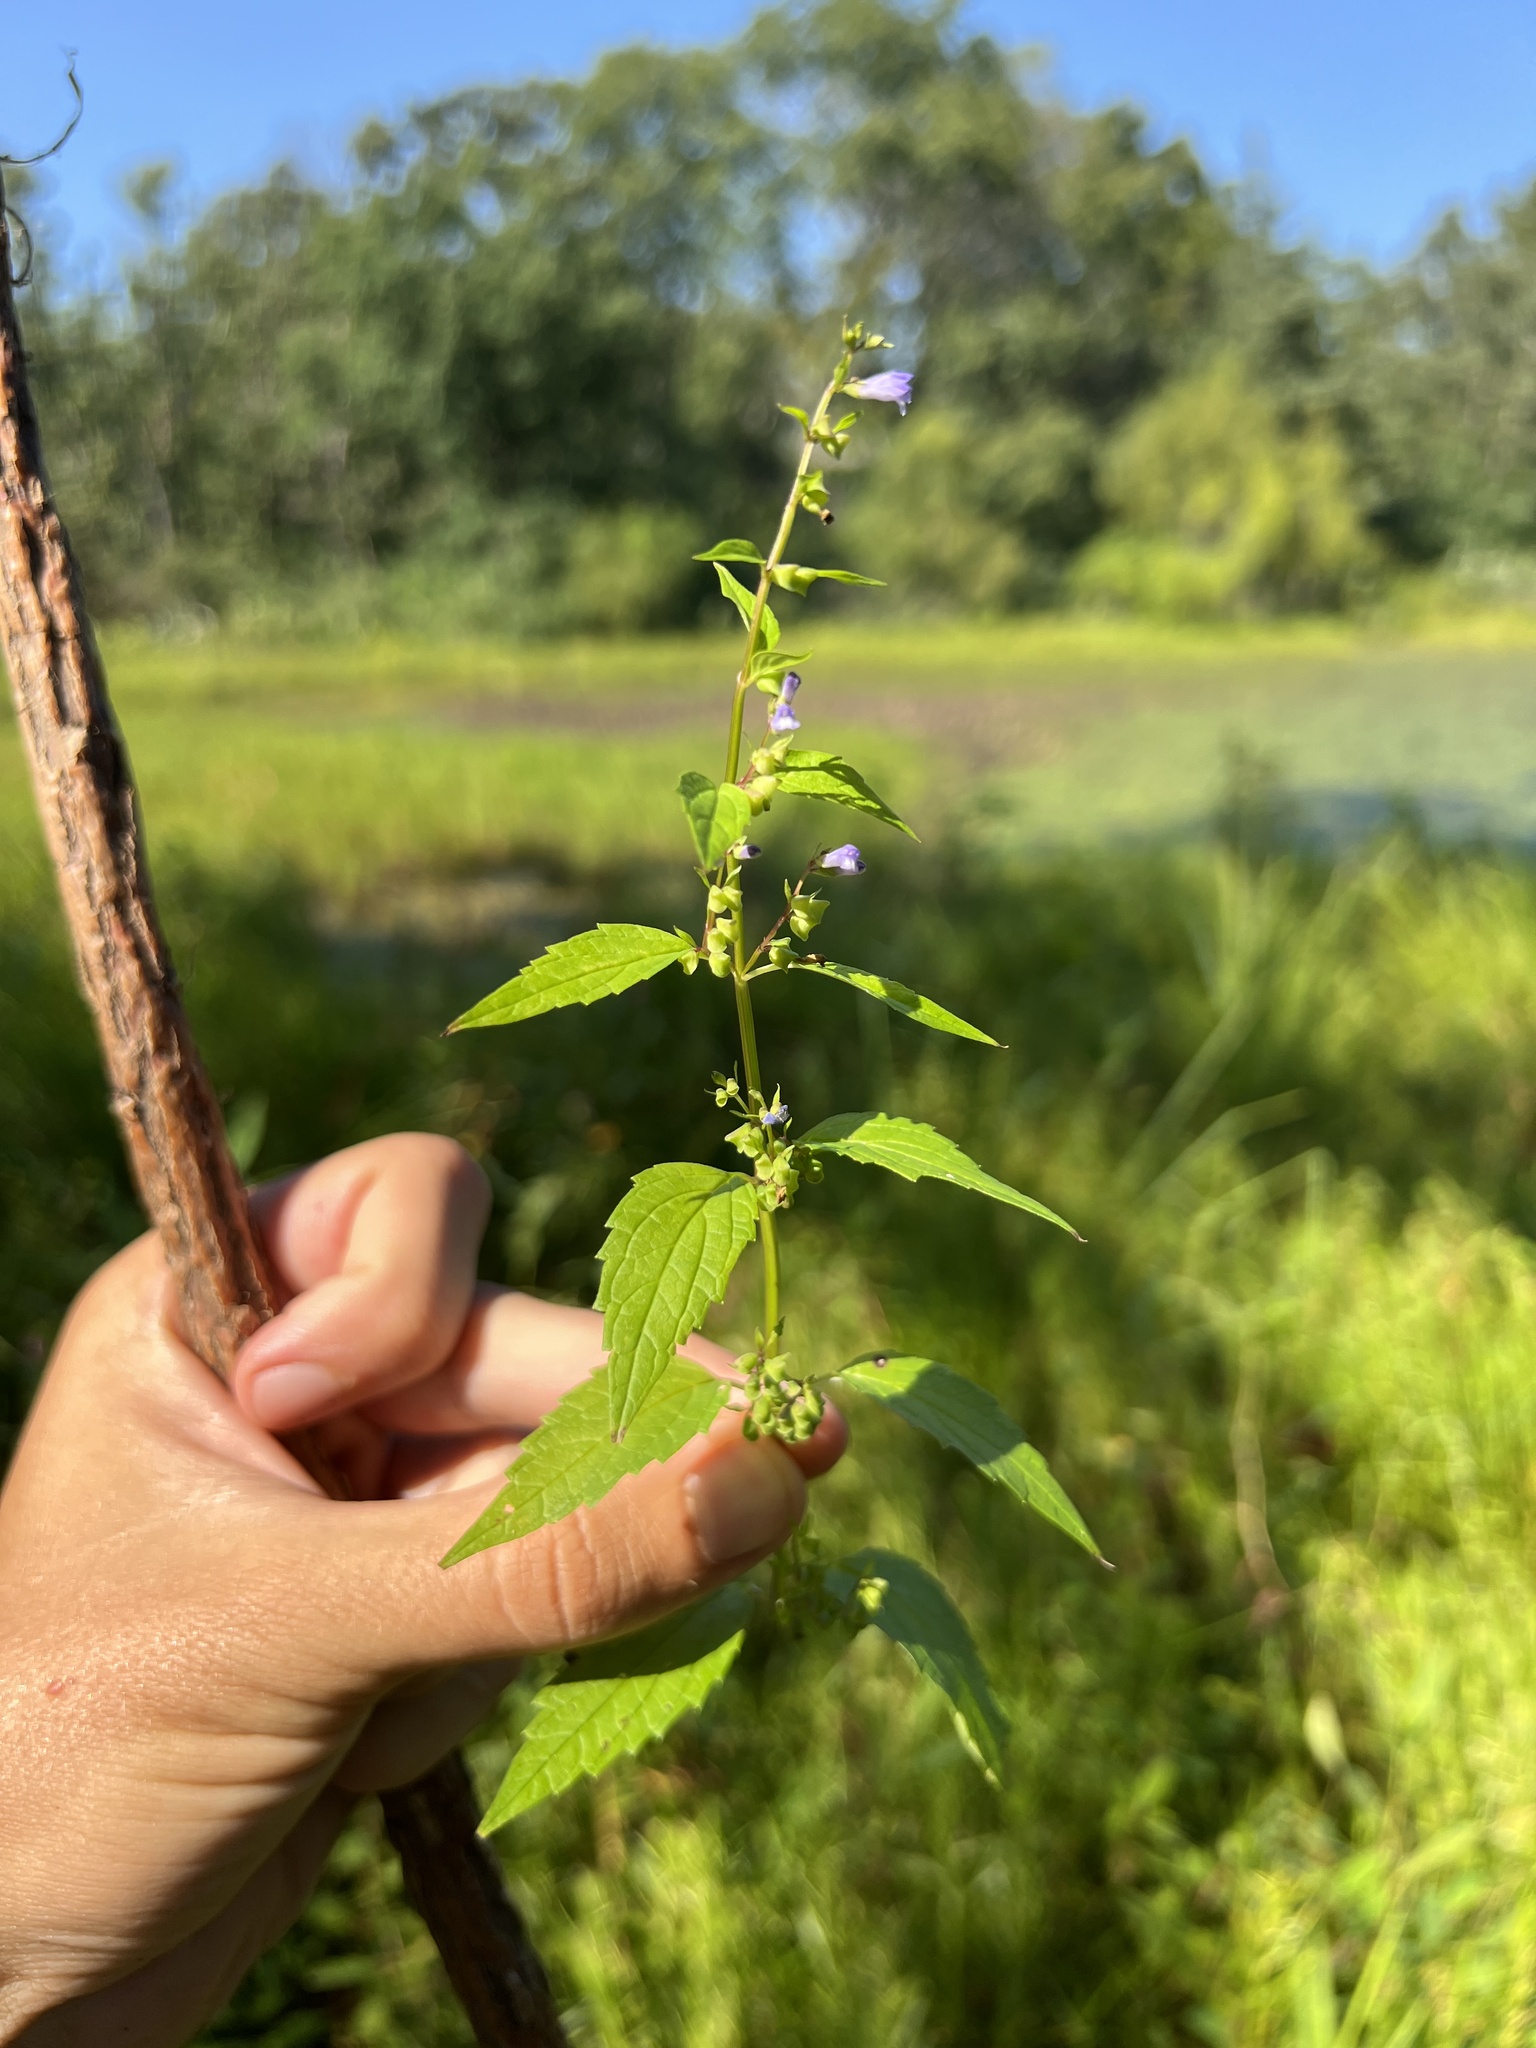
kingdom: Plantae
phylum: Tracheophyta
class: Magnoliopsida
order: Lamiales
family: Lamiaceae
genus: Scutellaria
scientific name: Scutellaria lateriflora
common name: Blue skullcap
